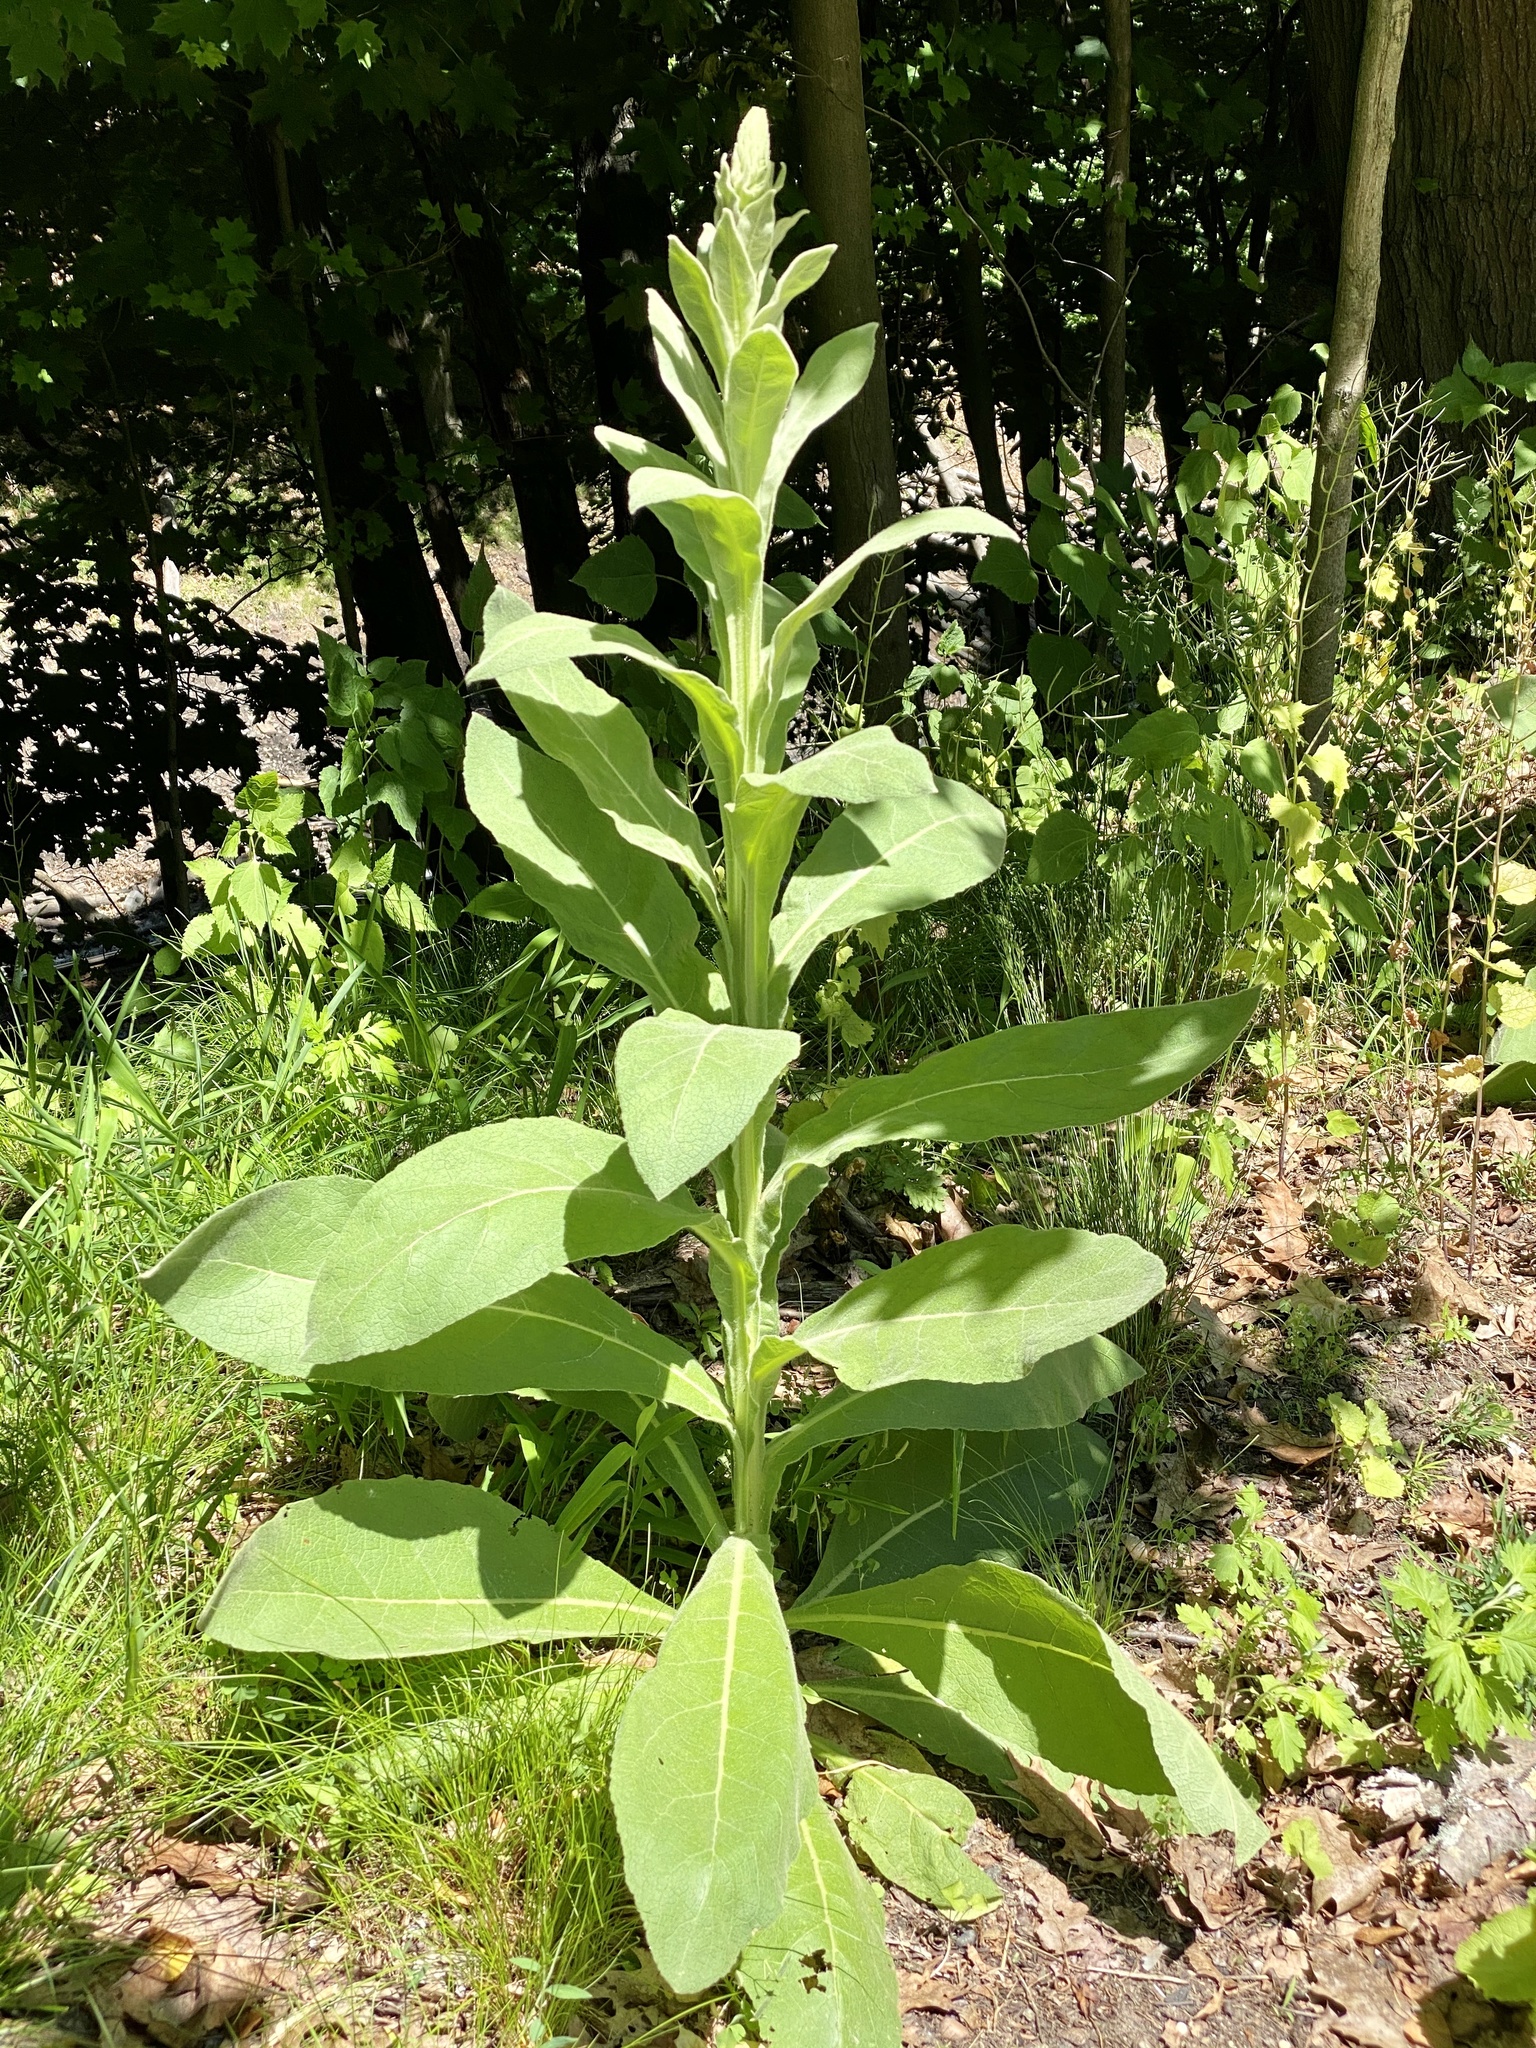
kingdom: Plantae
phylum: Tracheophyta
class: Magnoliopsida
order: Lamiales
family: Scrophulariaceae
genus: Verbascum
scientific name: Verbascum thapsus
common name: Common mullein
